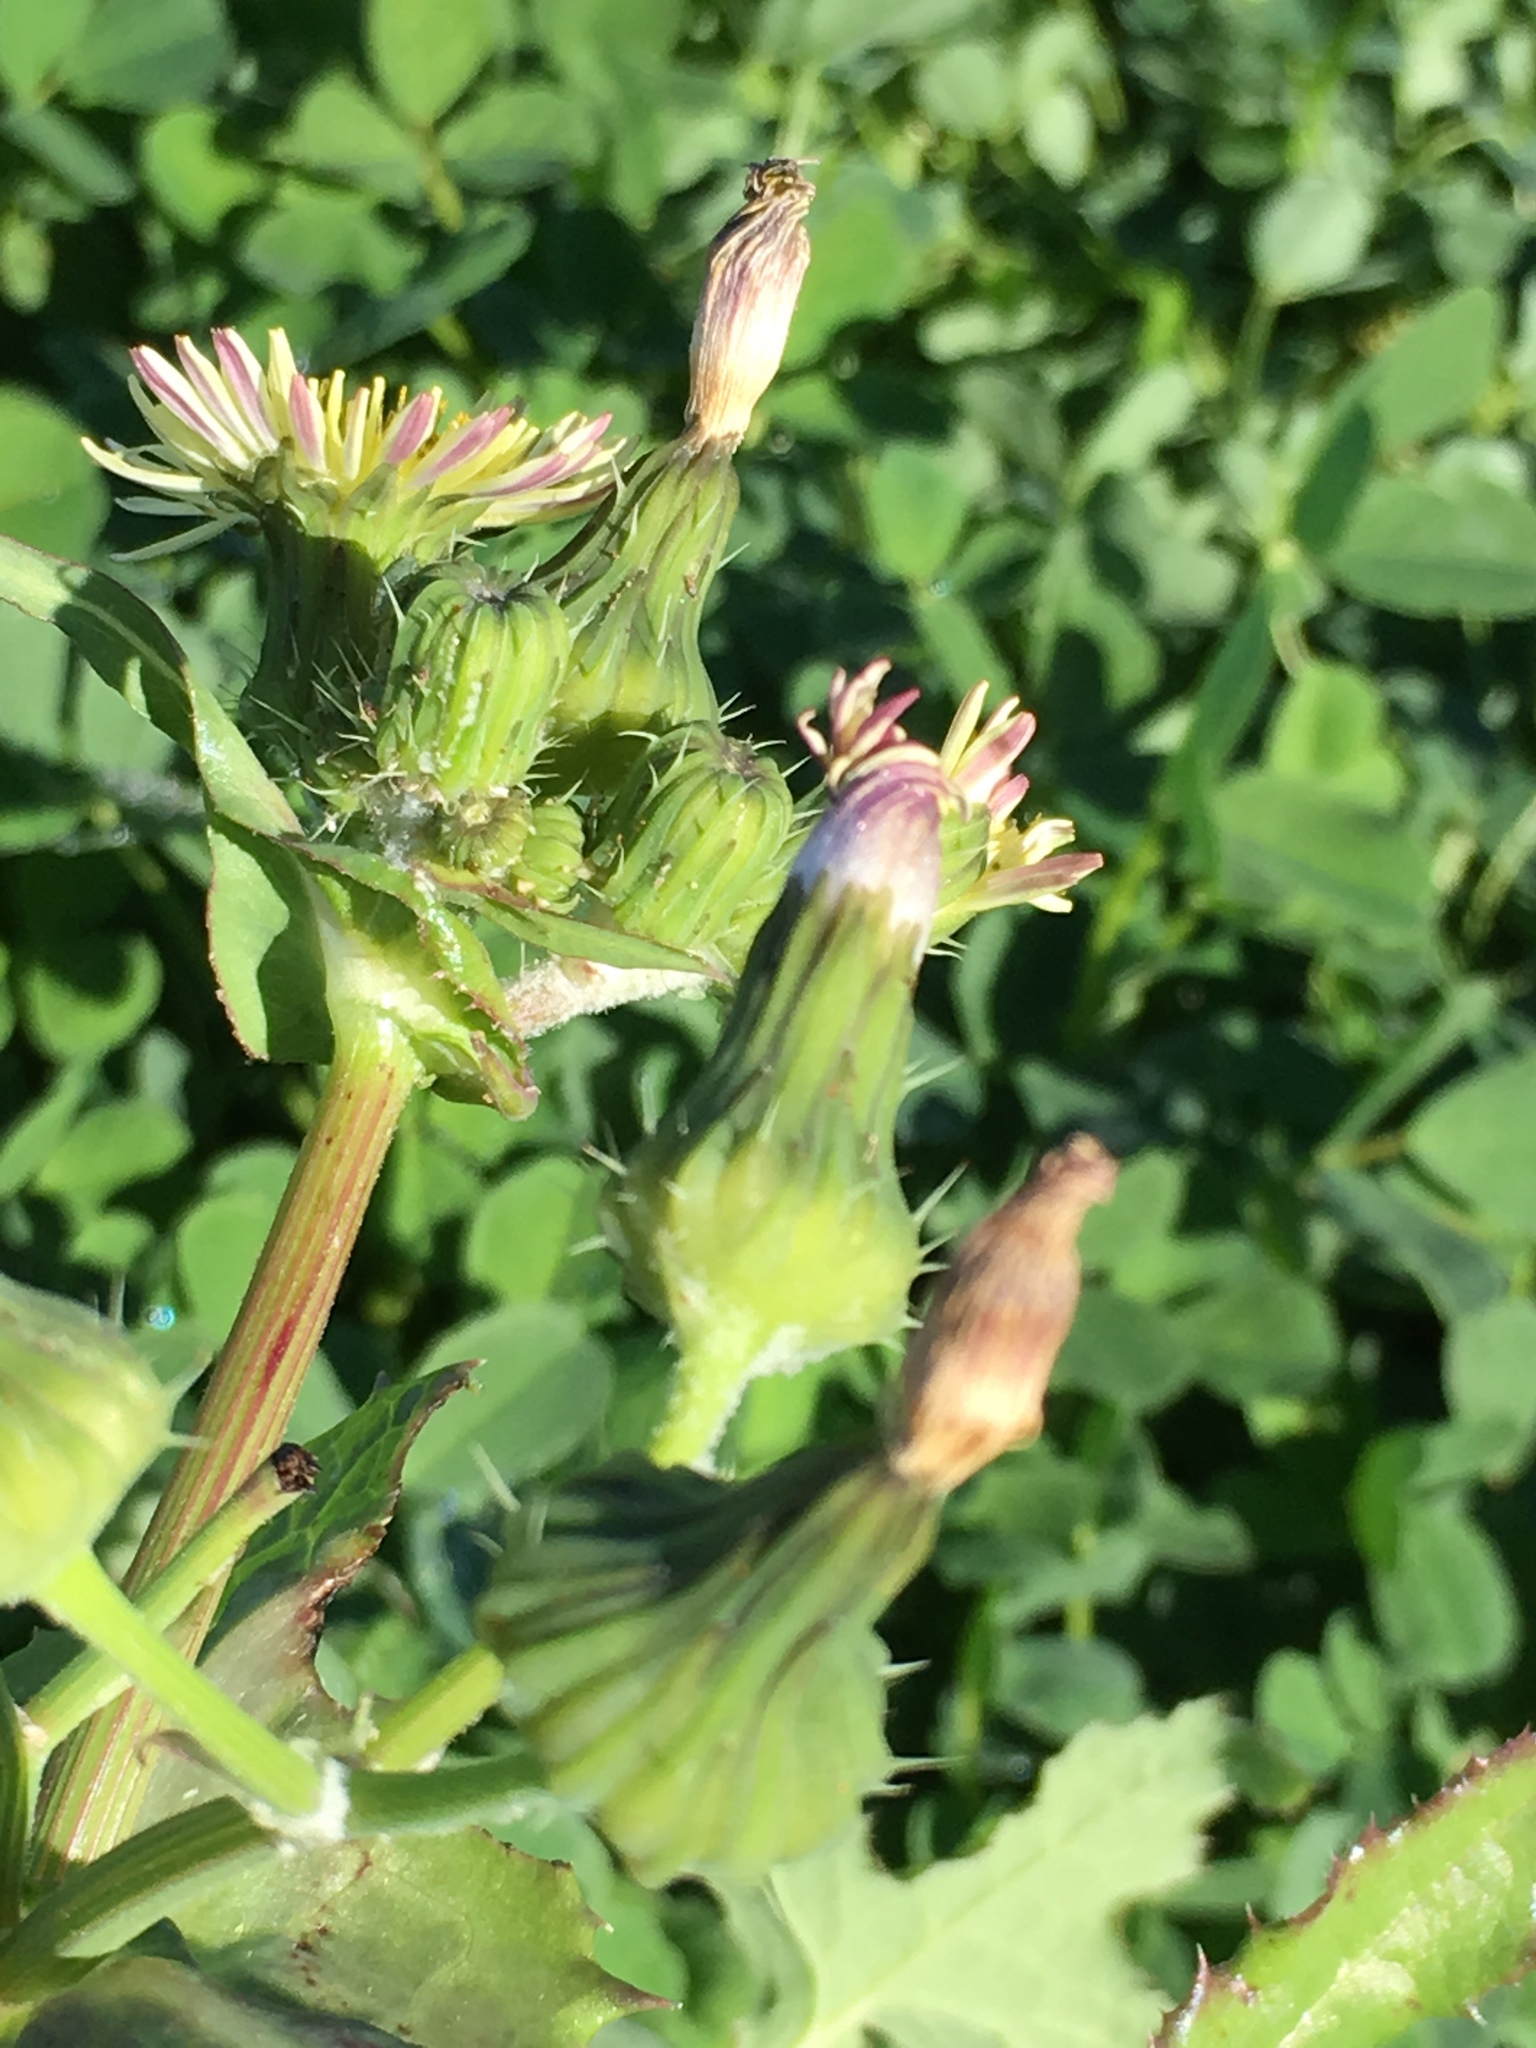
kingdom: Plantae
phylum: Tracheophyta
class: Magnoliopsida
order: Asterales
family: Asteraceae
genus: Sonchus
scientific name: Sonchus oleraceus
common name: Common sowthistle
